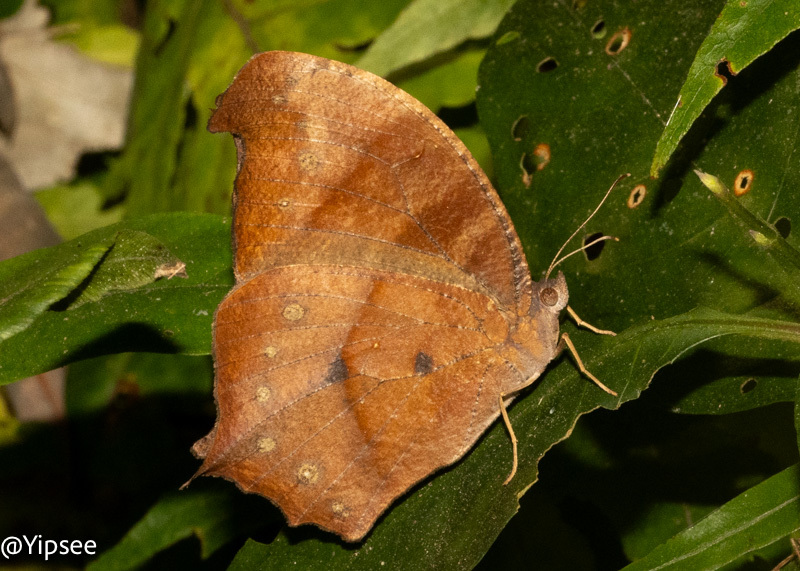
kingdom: Animalia
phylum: Arthropoda
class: Insecta
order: Lepidoptera
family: Nymphalidae
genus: Melanitis
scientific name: Melanitis zitenius
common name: Great evening brown
